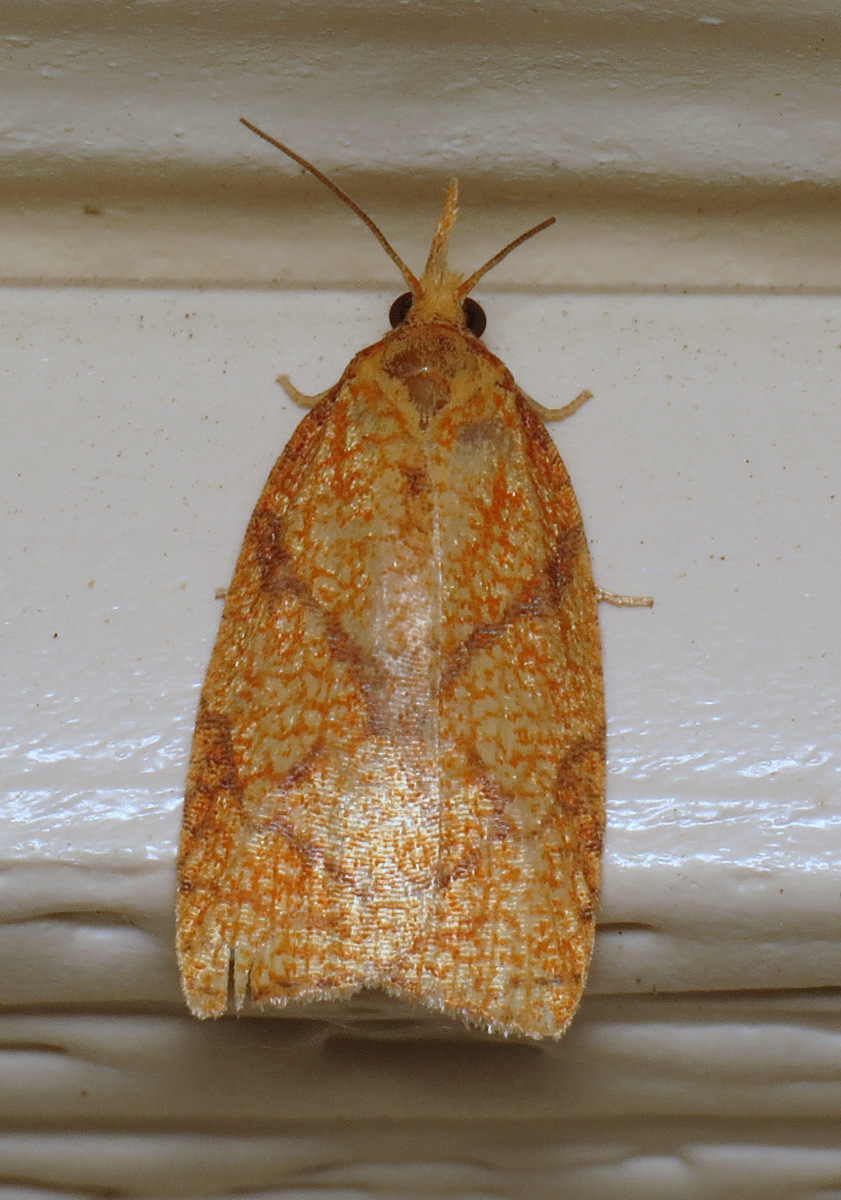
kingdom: Animalia
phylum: Arthropoda
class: Insecta
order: Lepidoptera
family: Tortricidae
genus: Cenopis
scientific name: Cenopis reticulatana
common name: Reticulated fruitworm moth
